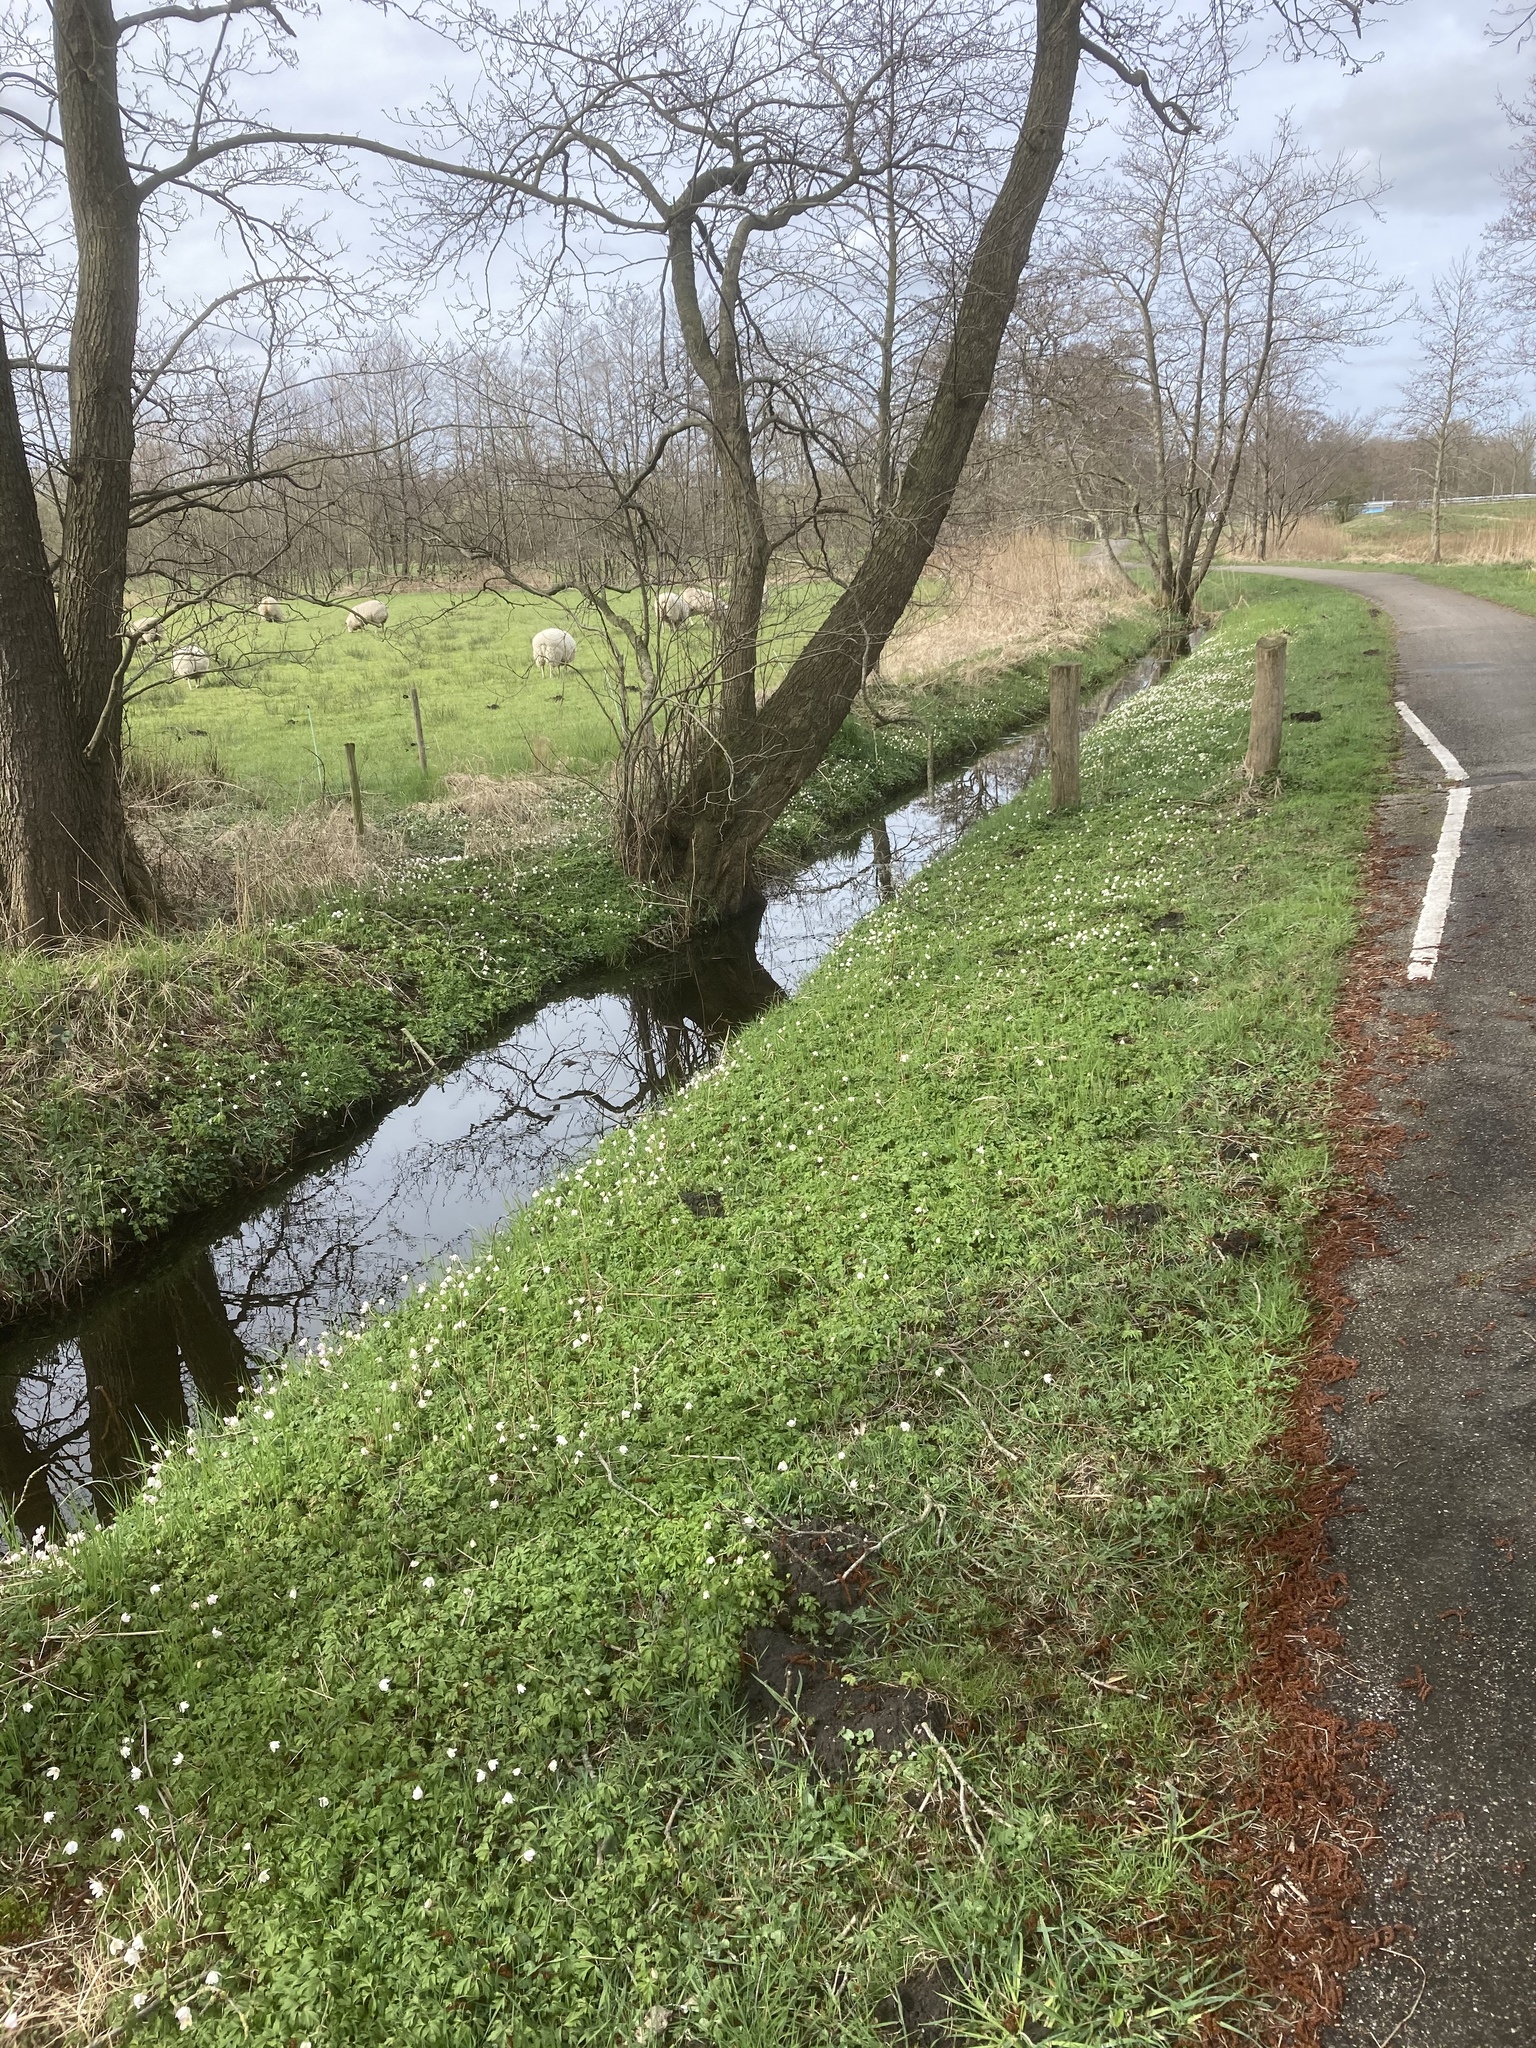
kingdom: Plantae
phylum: Tracheophyta
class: Magnoliopsida
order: Ranunculales
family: Ranunculaceae
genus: Anemone
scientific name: Anemone nemorosa
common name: Wood anemone
